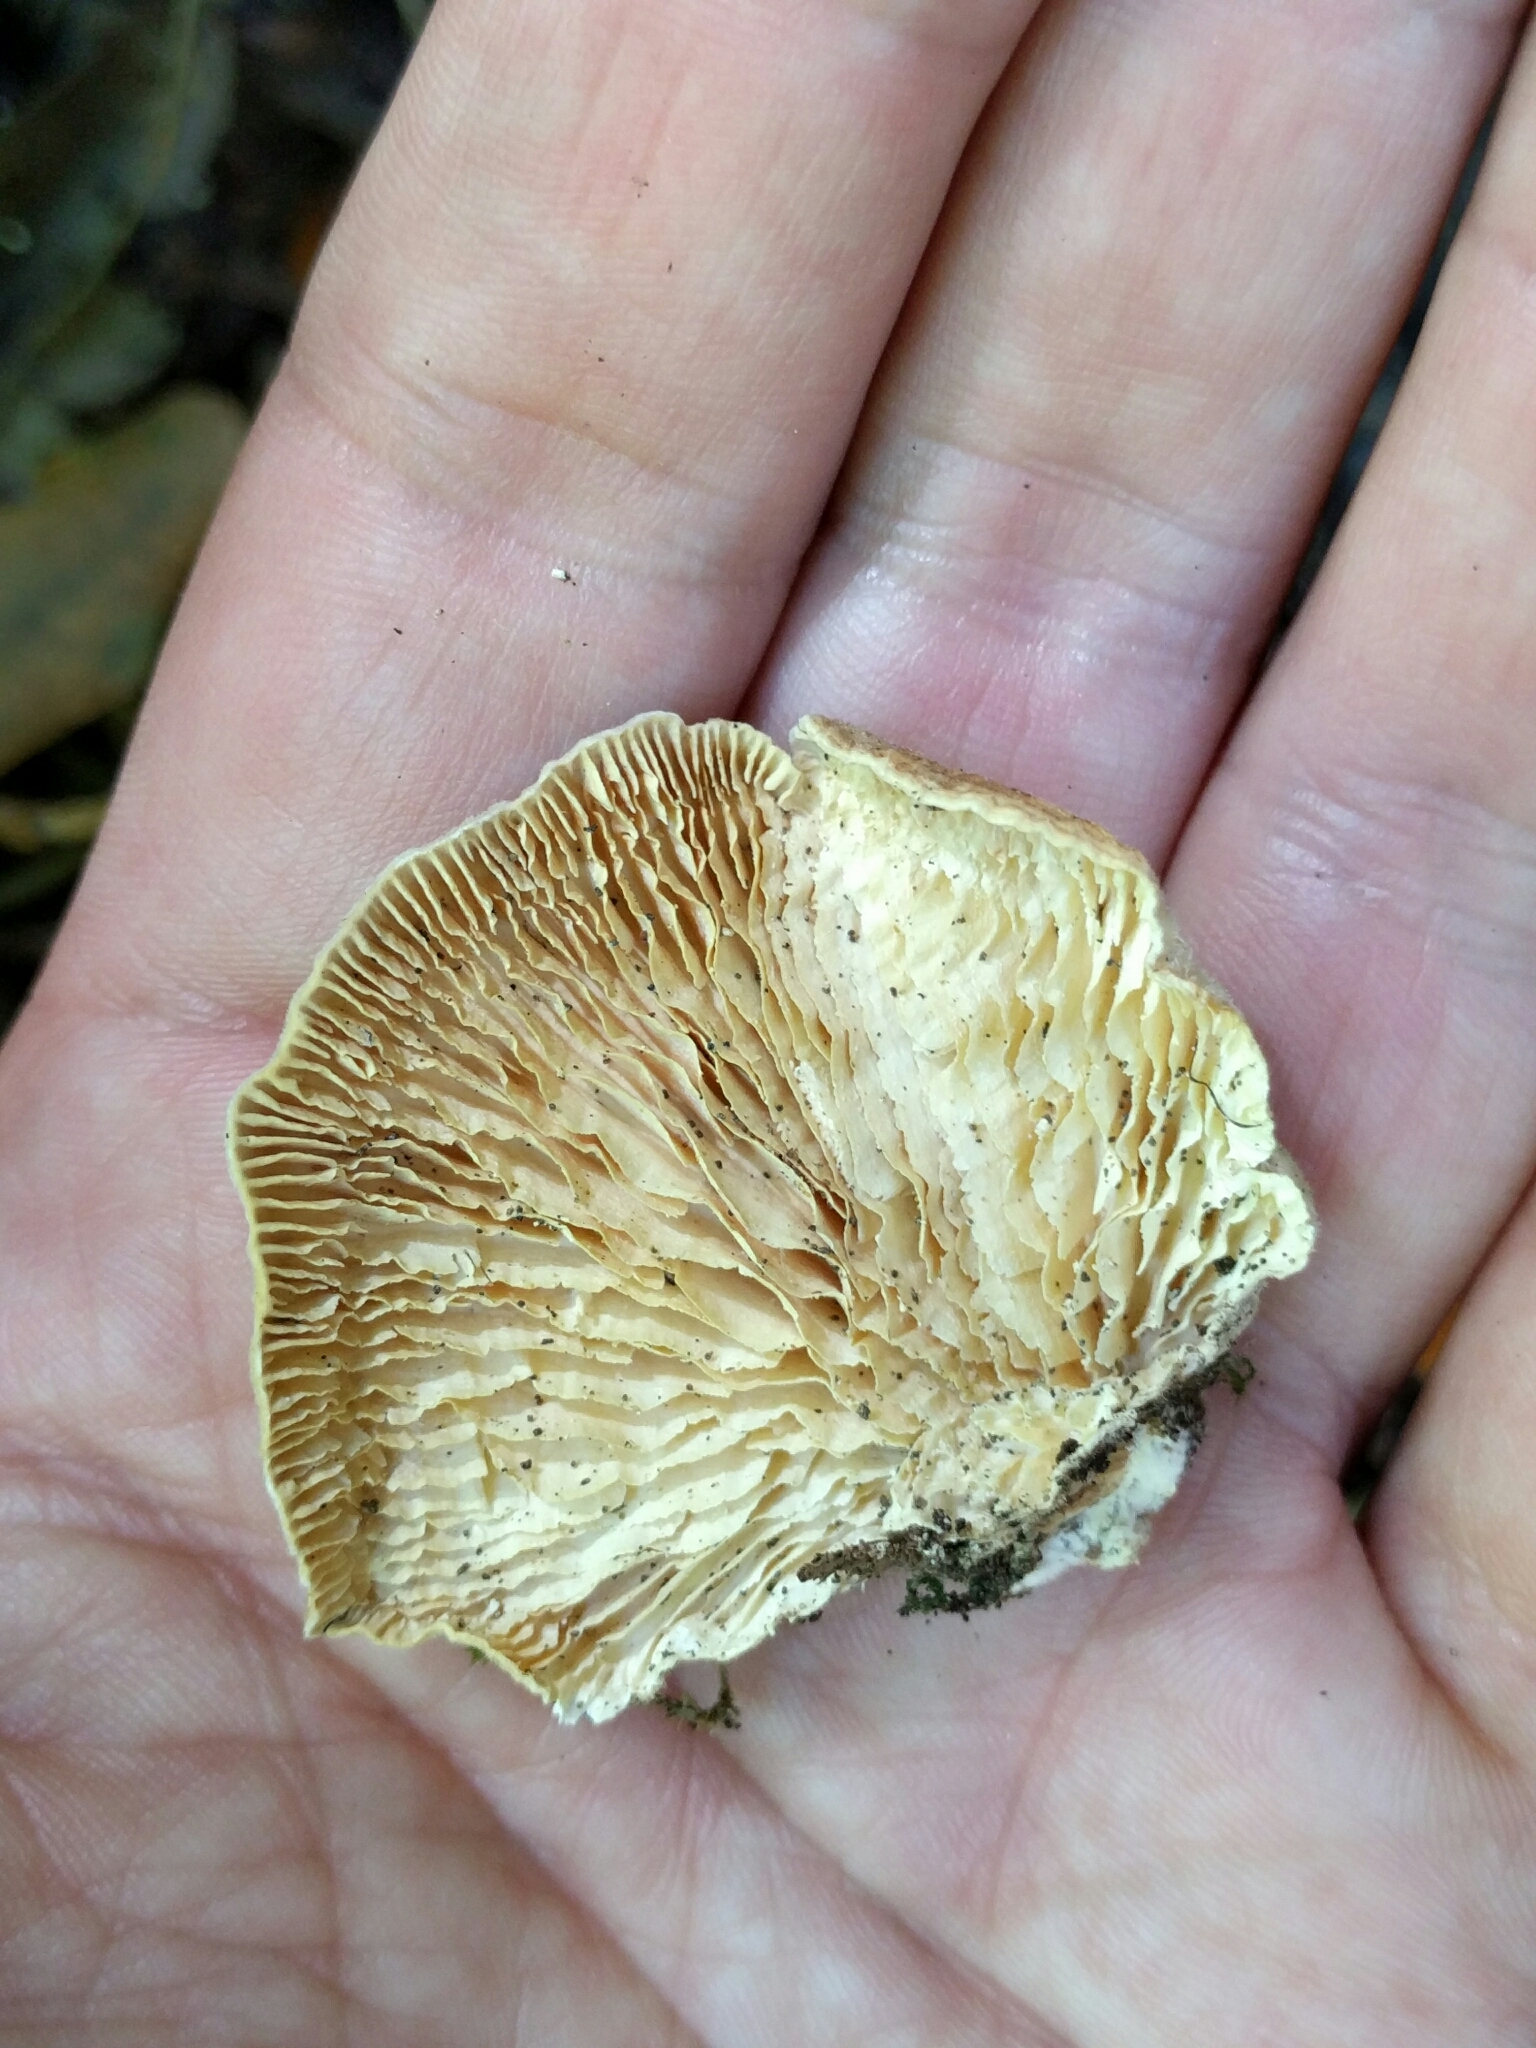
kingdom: Fungi
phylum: Basidiomycota
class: Agaricomycetes
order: Polyporales
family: Polyporaceae
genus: Lenzites
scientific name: Lenzites betulinus
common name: Birch mazegill
